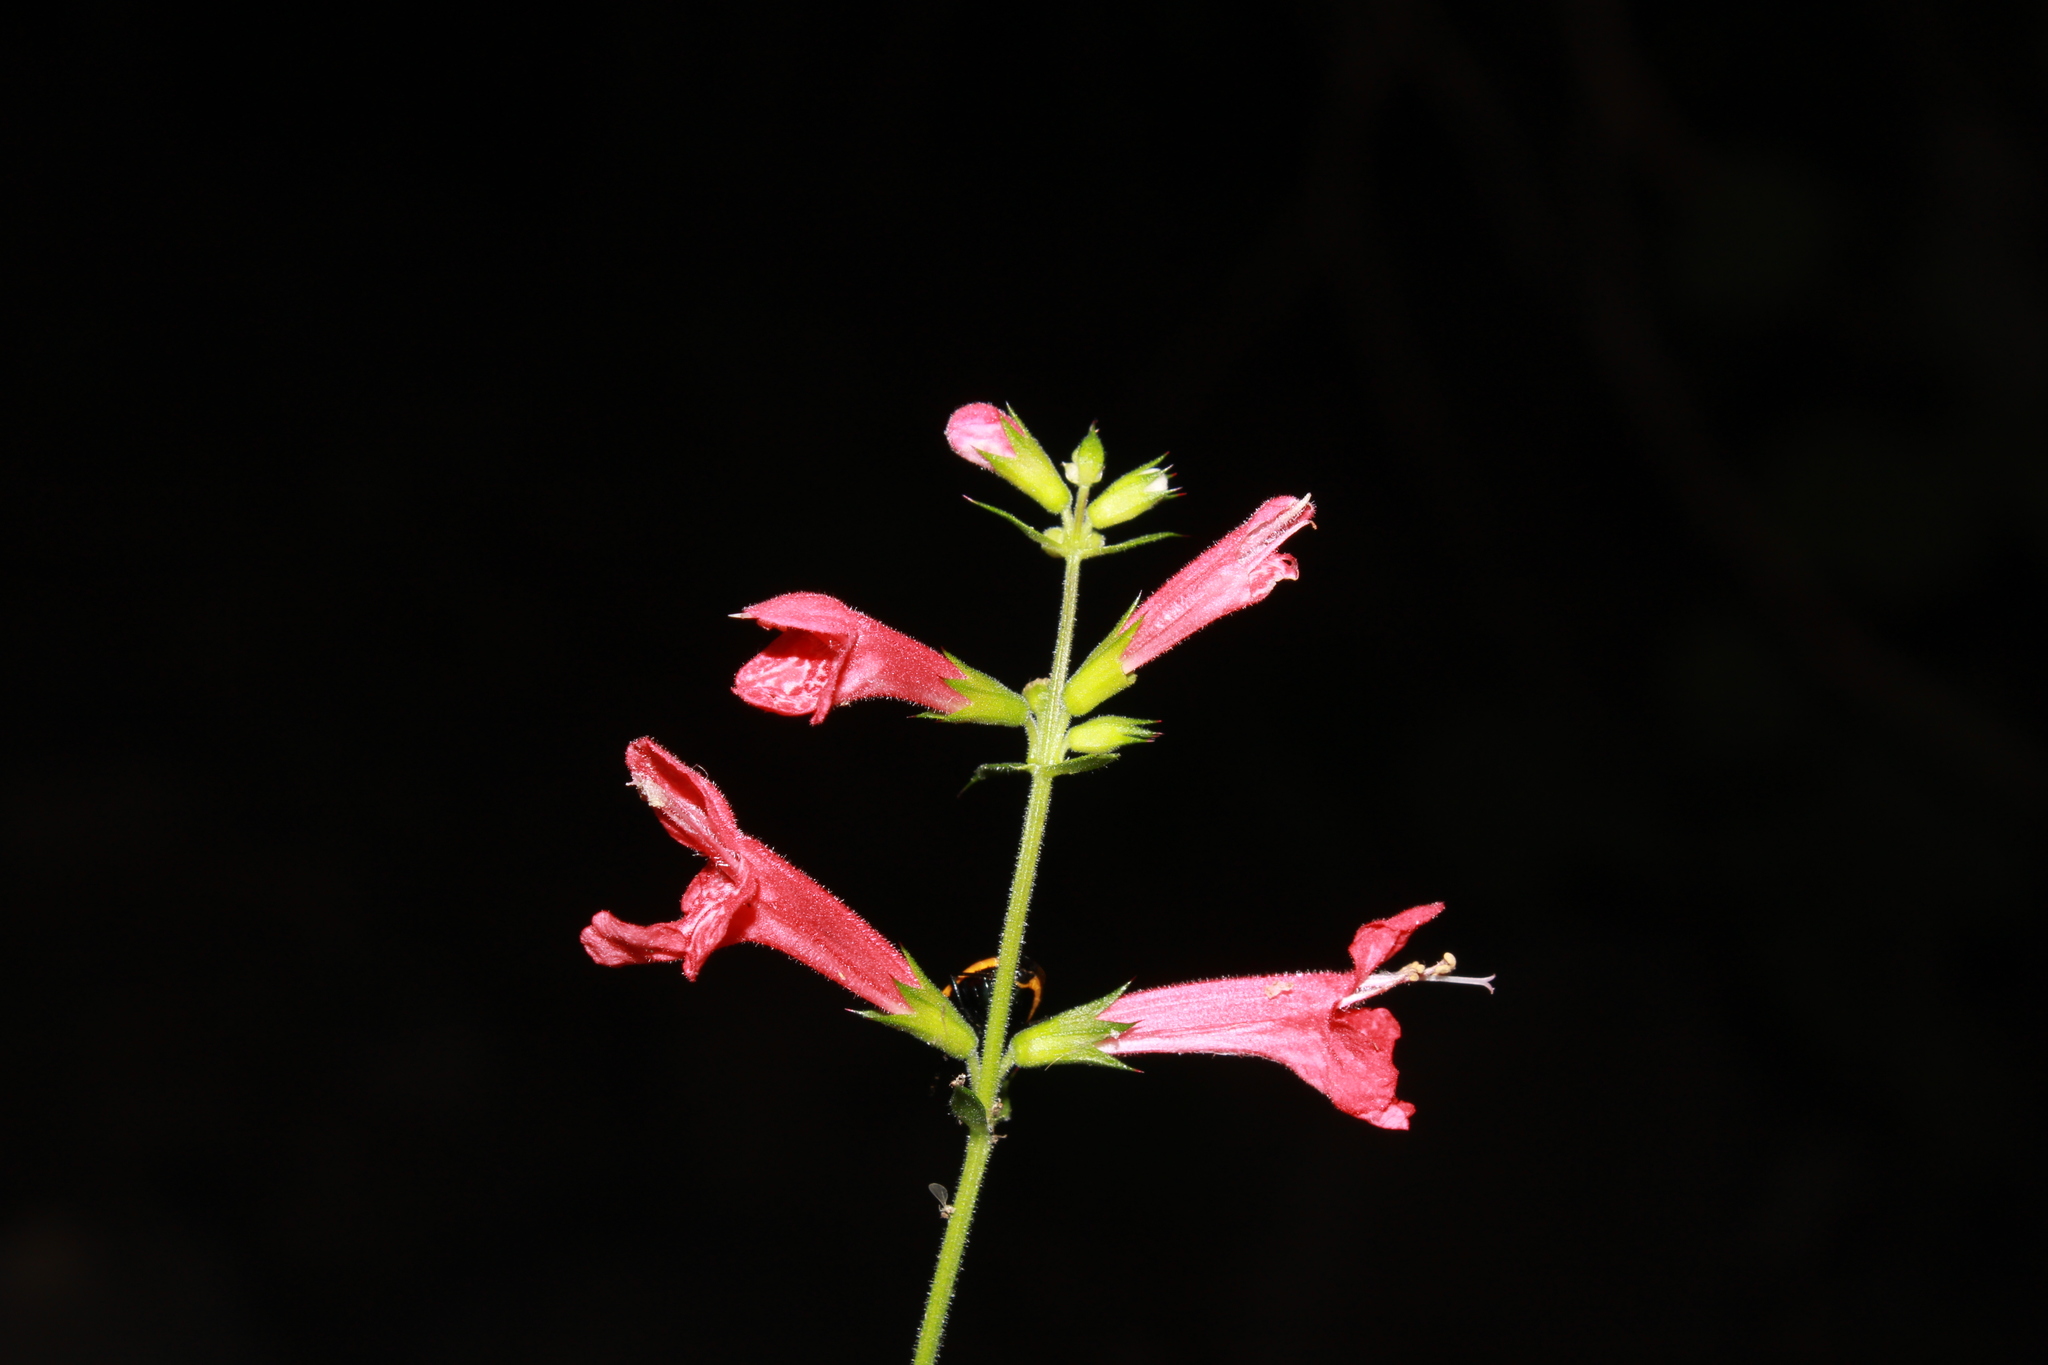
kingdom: Plantae
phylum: Tracheophyta
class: Magnoliopsida
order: Lamiales
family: Lamiaceae
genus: Stachys
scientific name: Stachys coccinea
